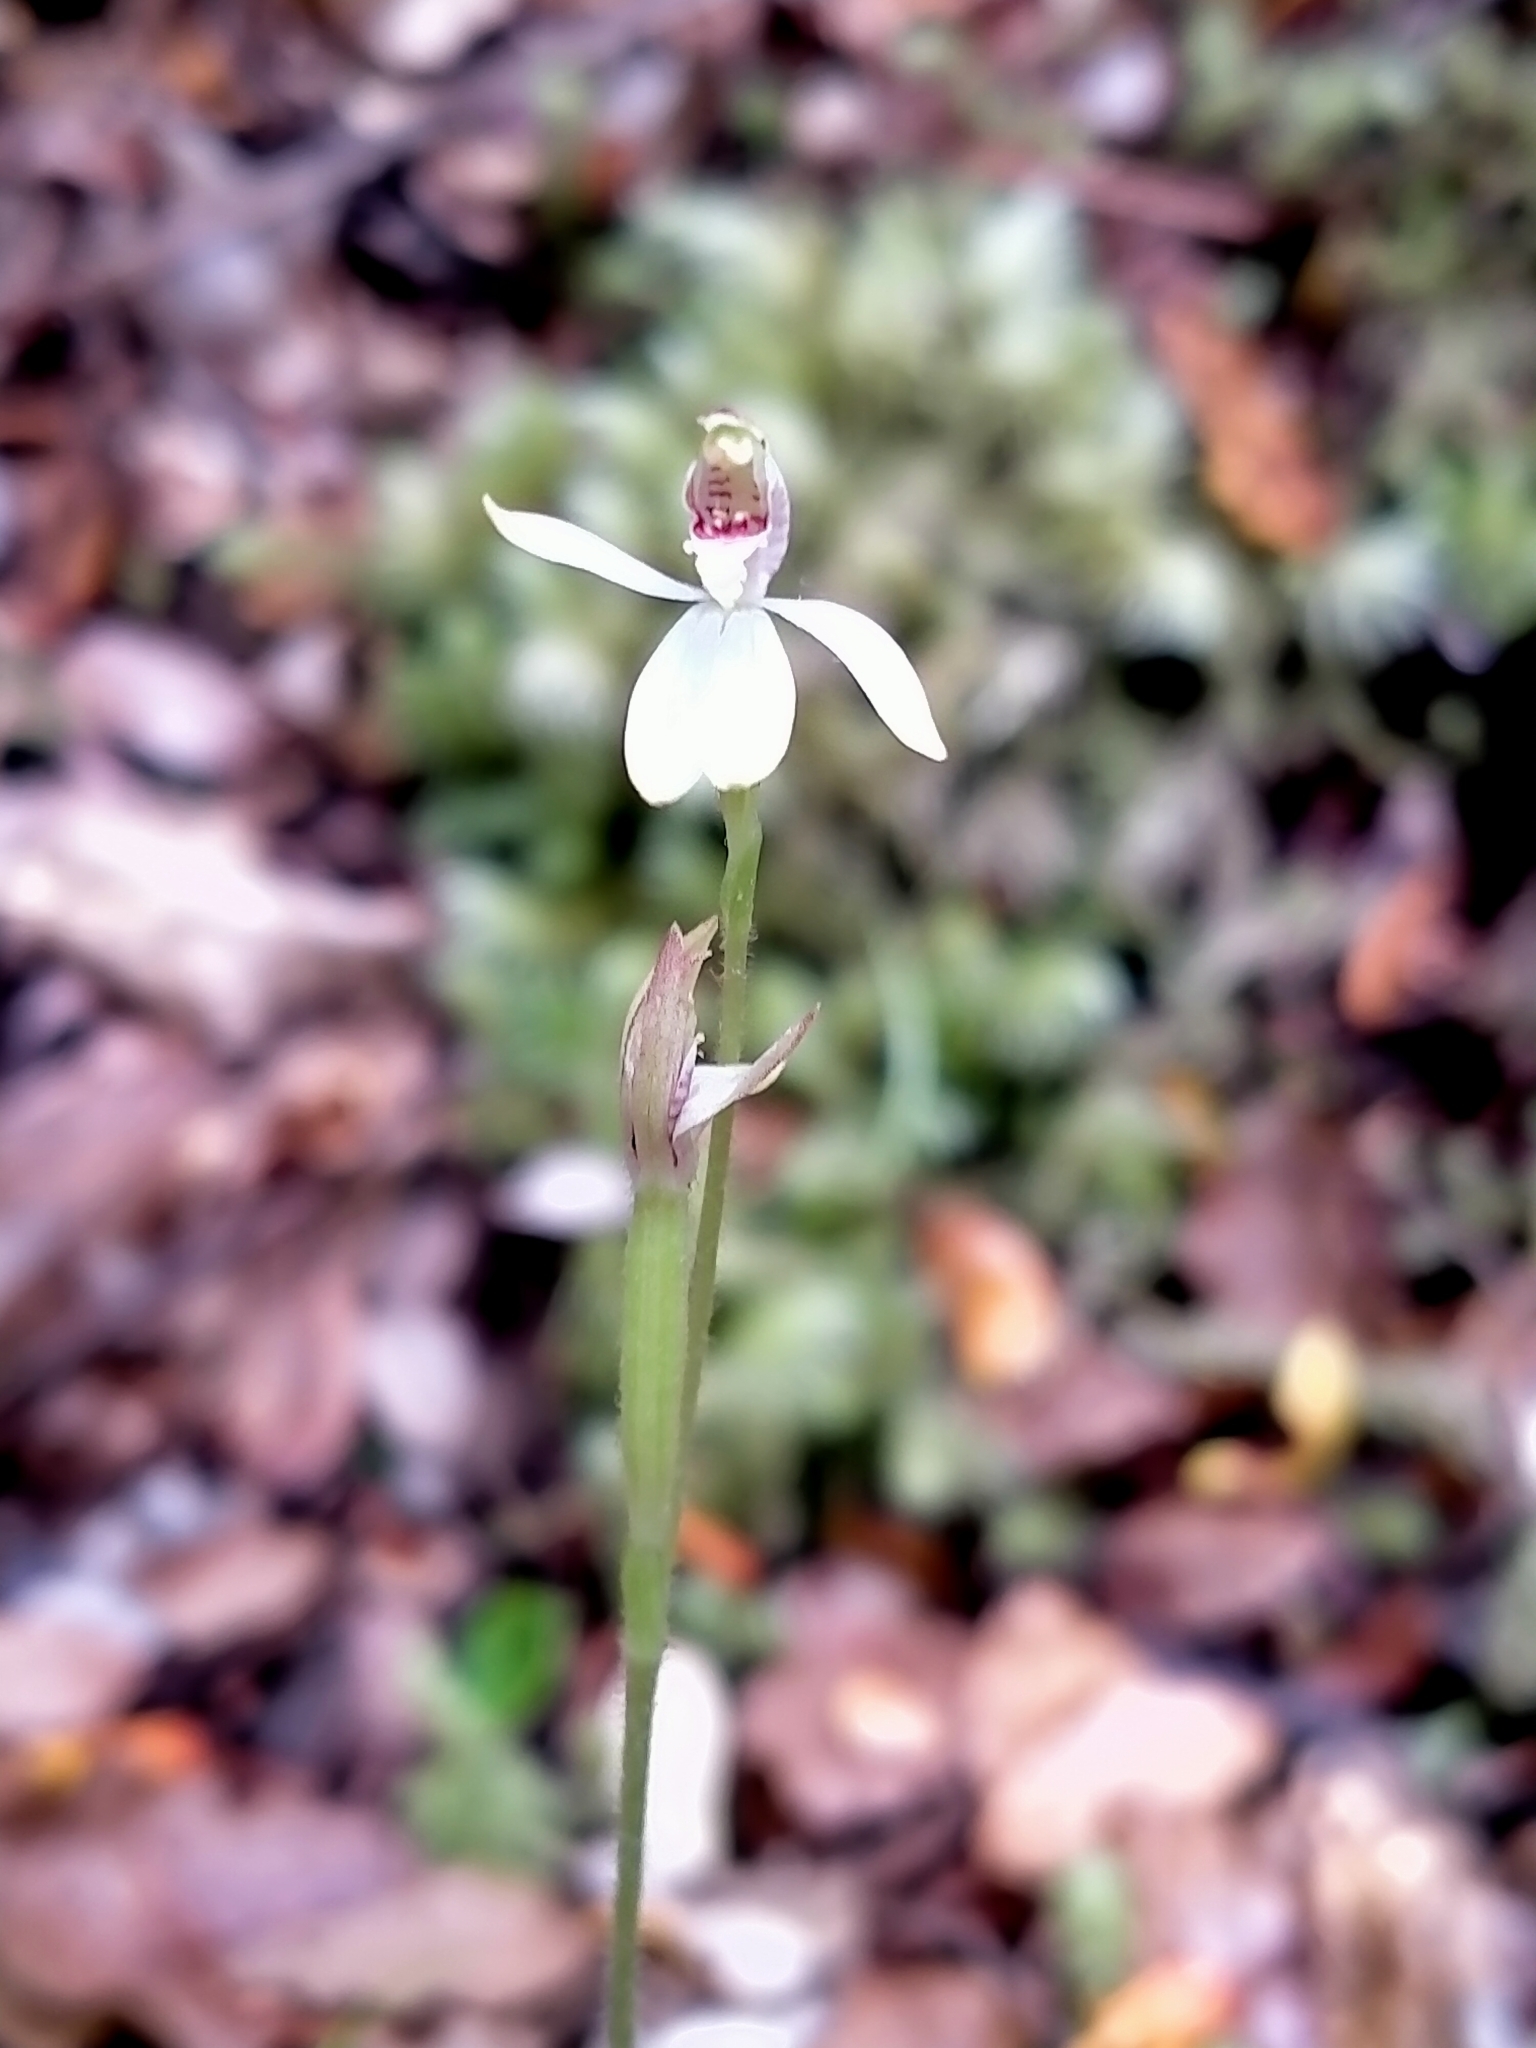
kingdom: Plantae
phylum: Tracheophyta
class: Liliopsida
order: Asparagales
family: Orchidaceae
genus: Caladenia
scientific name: Caladenia chlorostyla
